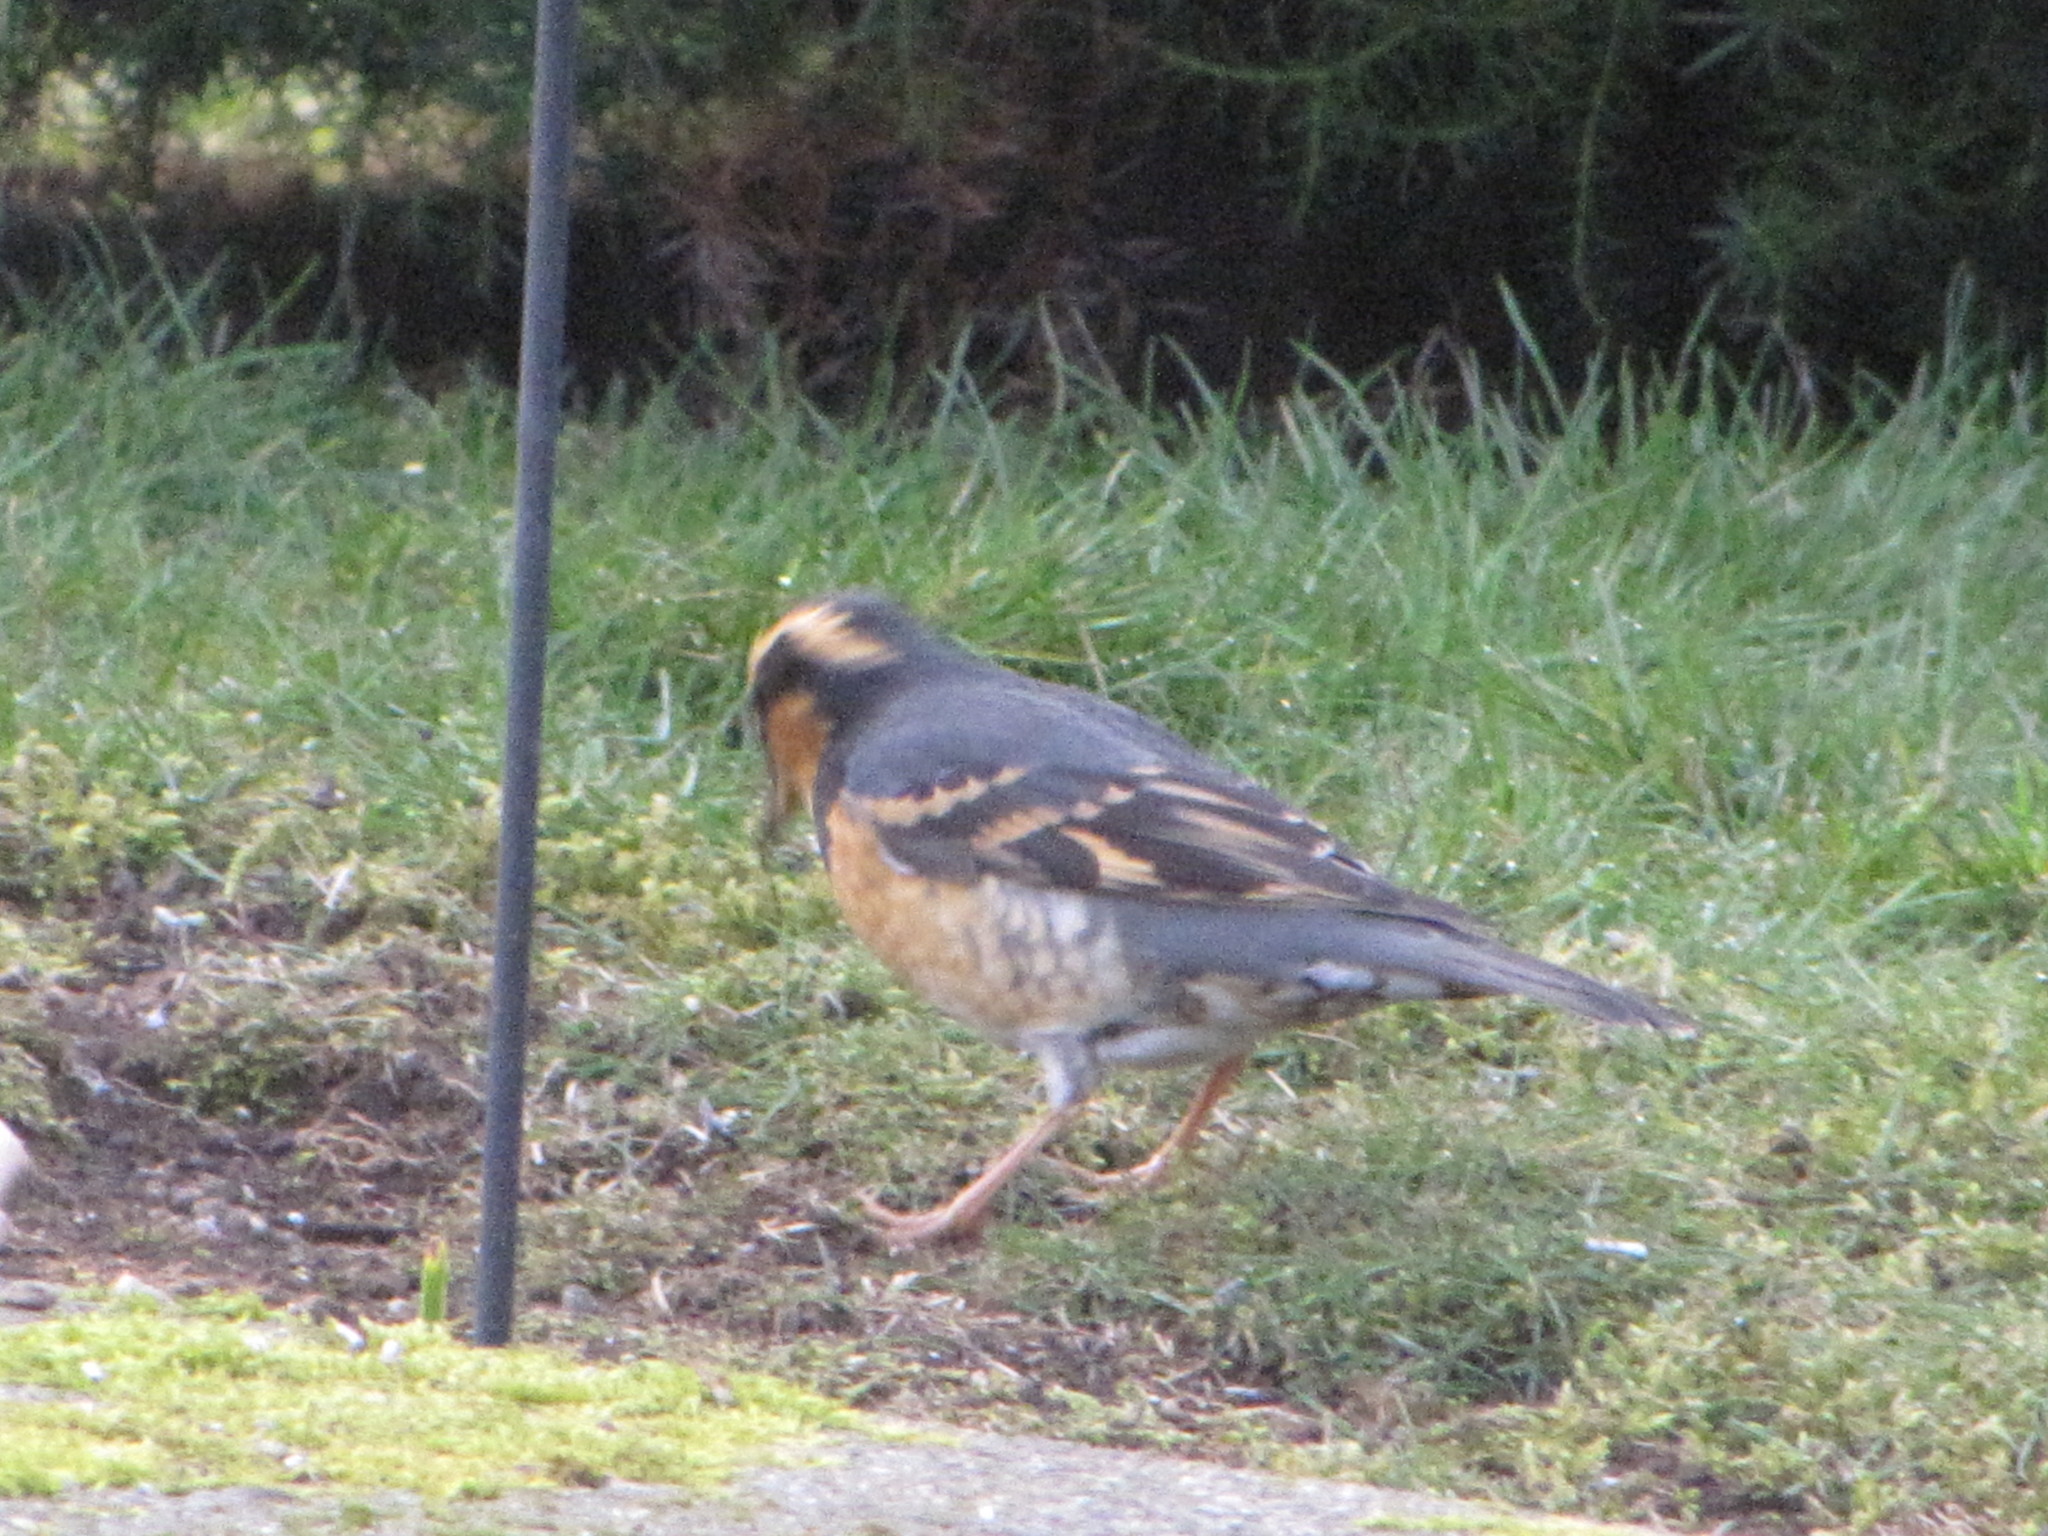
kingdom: Animalia
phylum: Chordata
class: Aves
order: Passeriformes
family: Turdidae
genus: Ixoreus
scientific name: Ixoreus naevius
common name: Varied thrush
